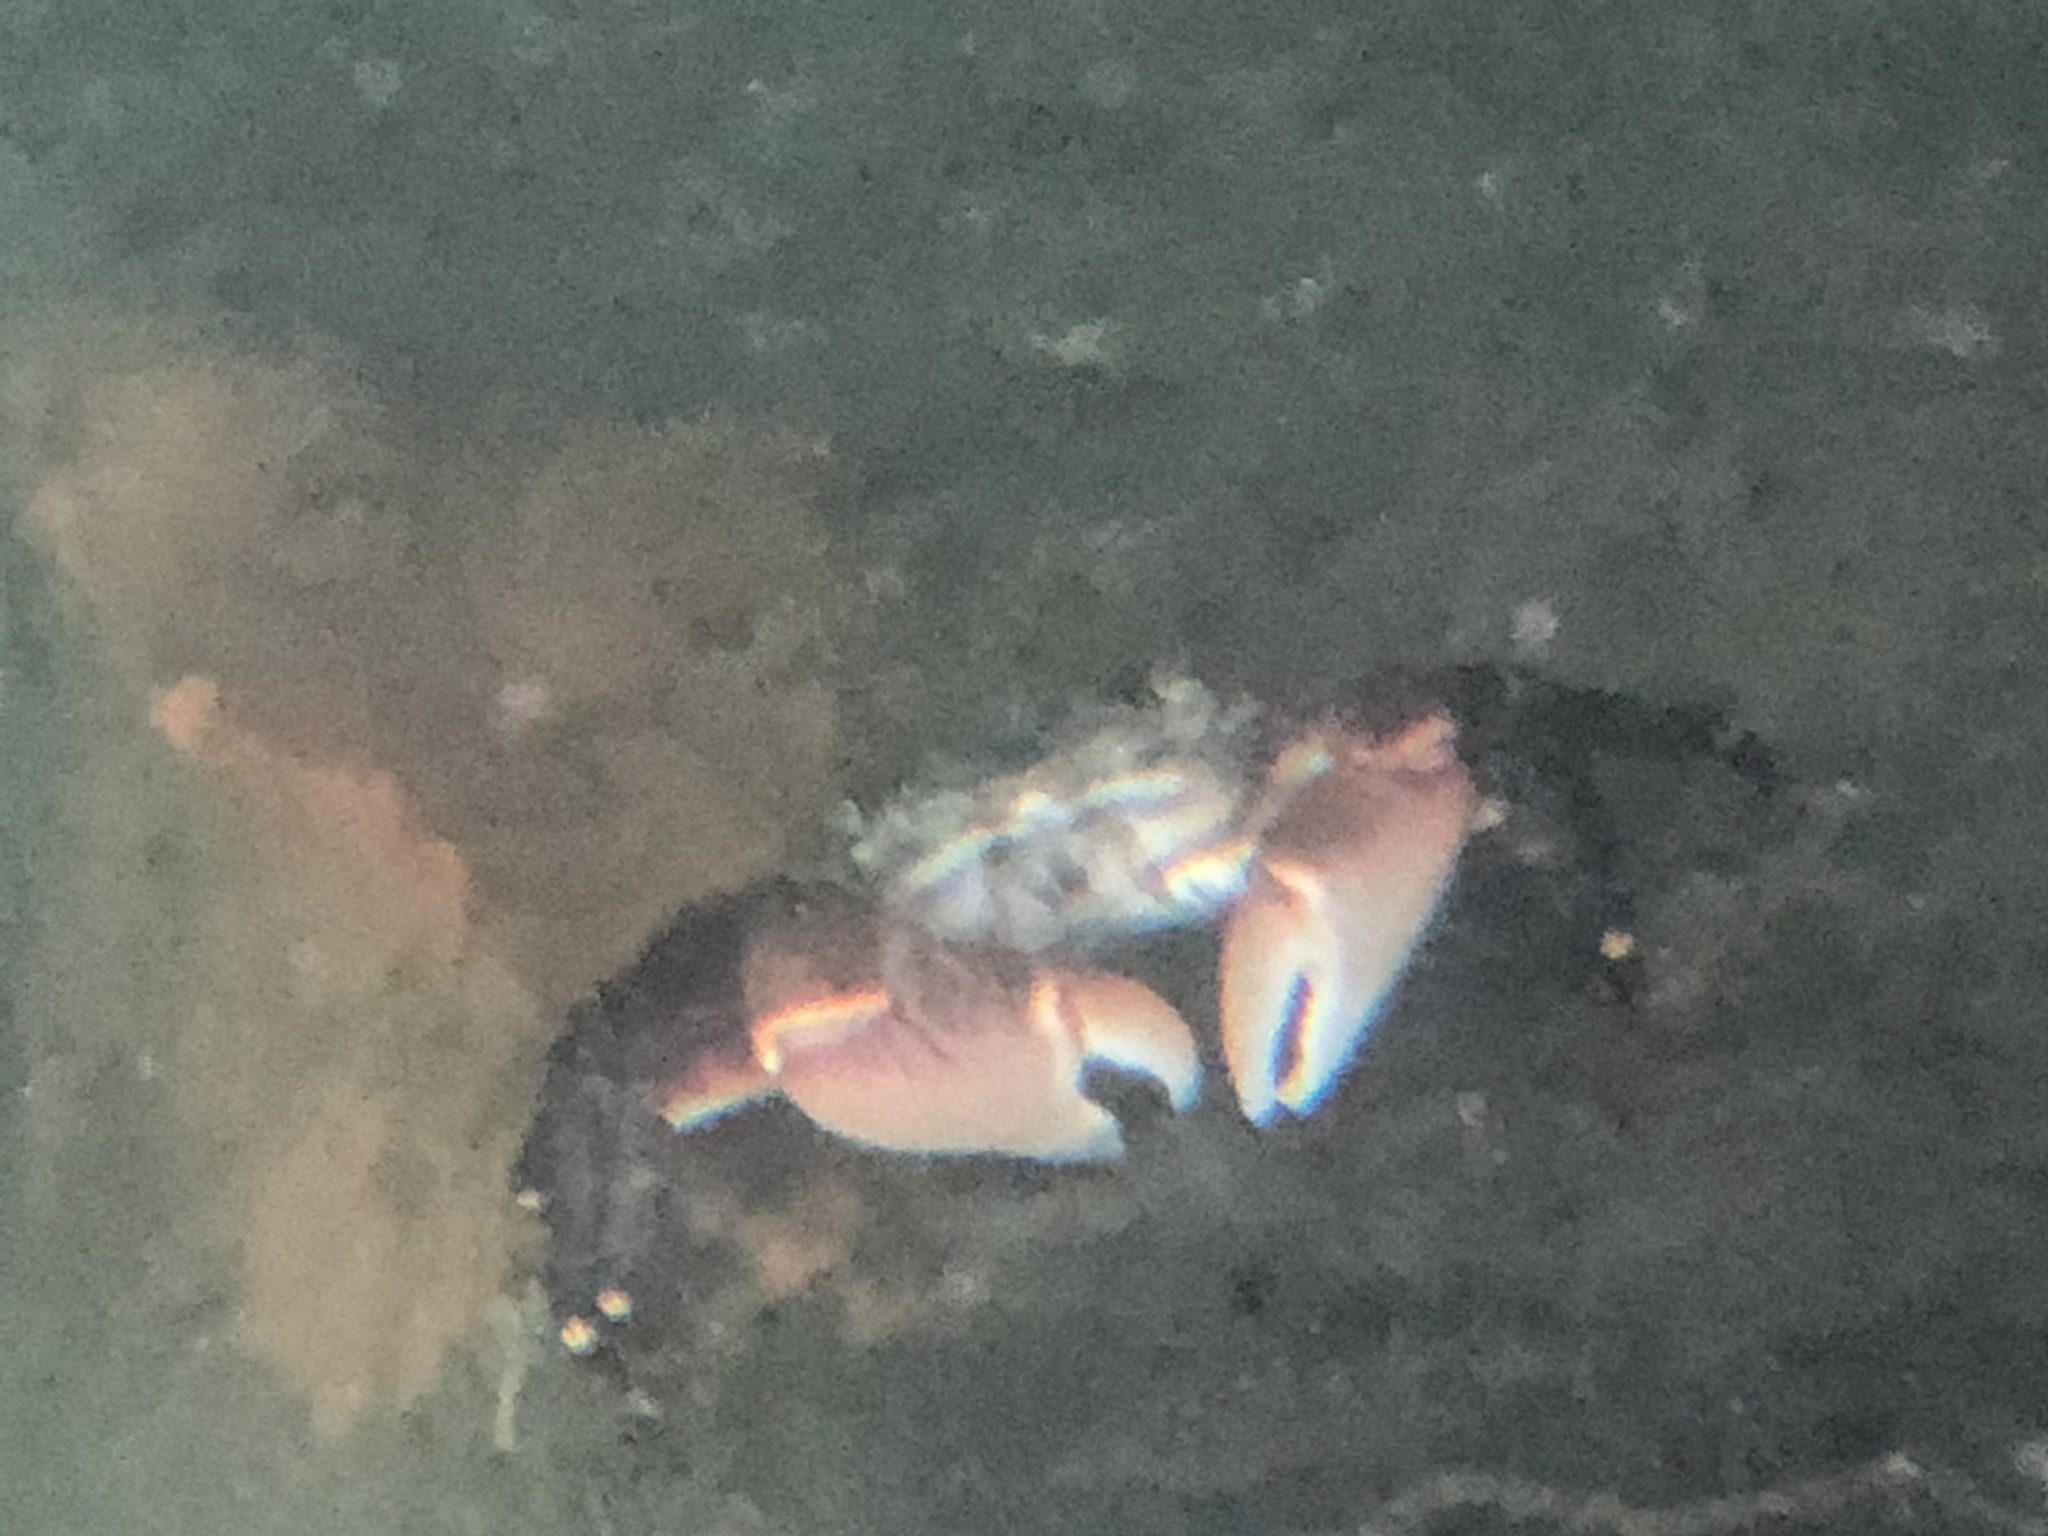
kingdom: Animalia
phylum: Arthropoda
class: Malacostraca
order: Decapoda
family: Grapsidae
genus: Pachygrapsus
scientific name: Pachygrapsus crassipes
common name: Striped shore crab
